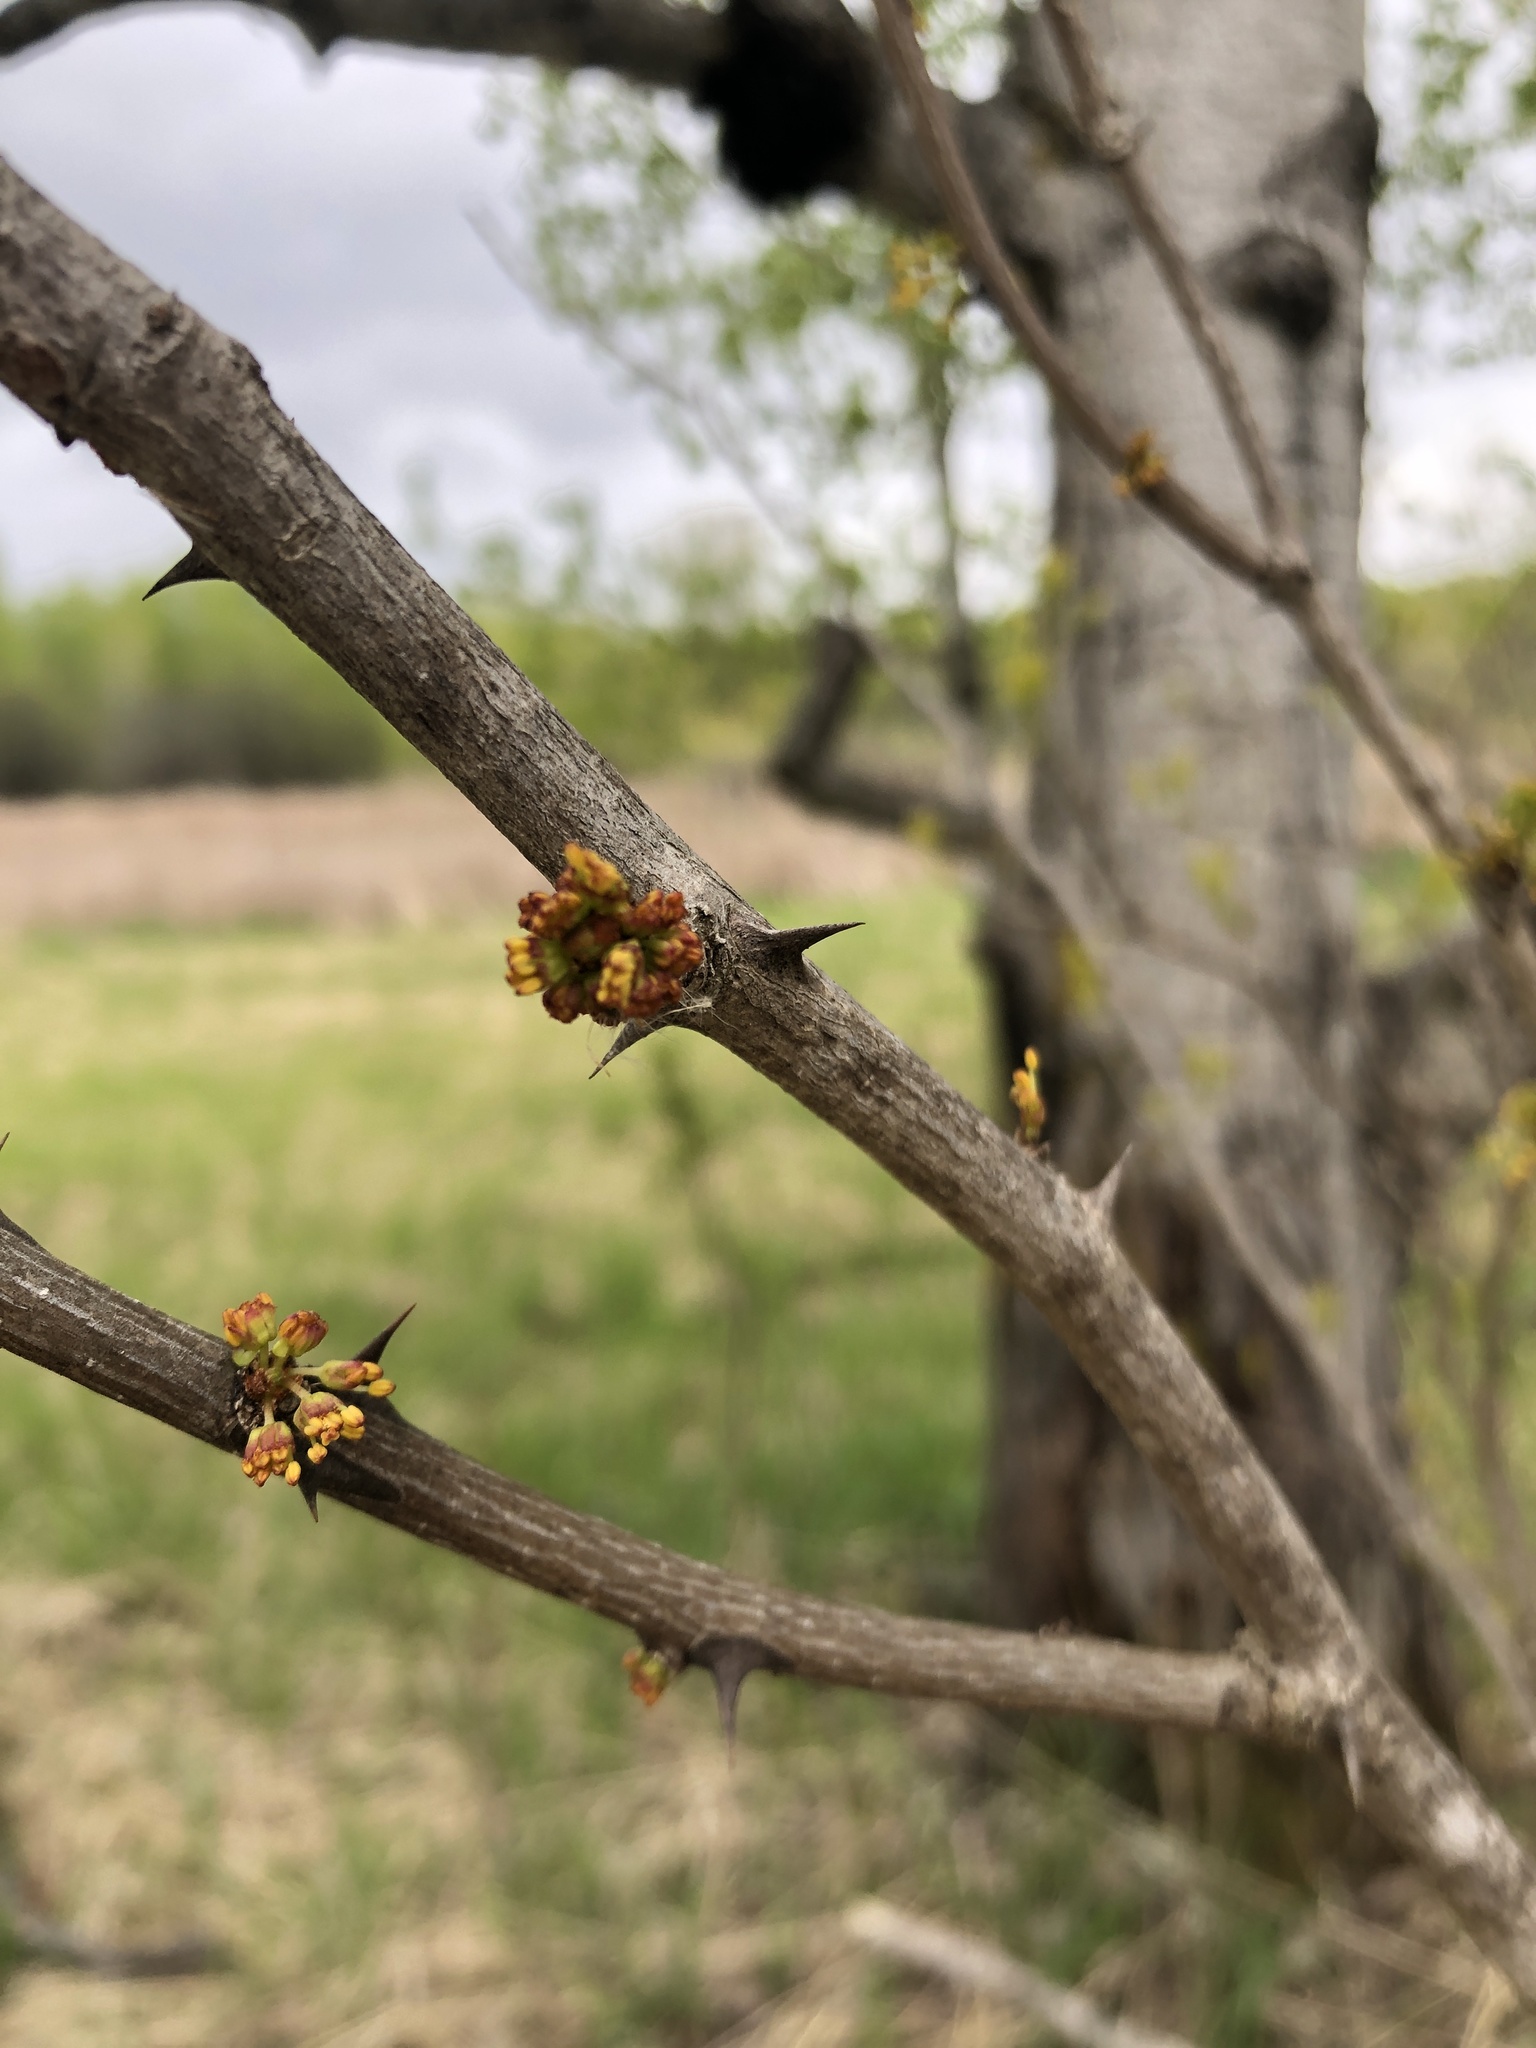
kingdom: Plantae
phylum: Tracheophyta
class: Magnoliopsida
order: Sapindales
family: Rutaceae
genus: Zanthoxylum
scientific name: Zanthoxylum americanum
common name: Northern prickly-ash
